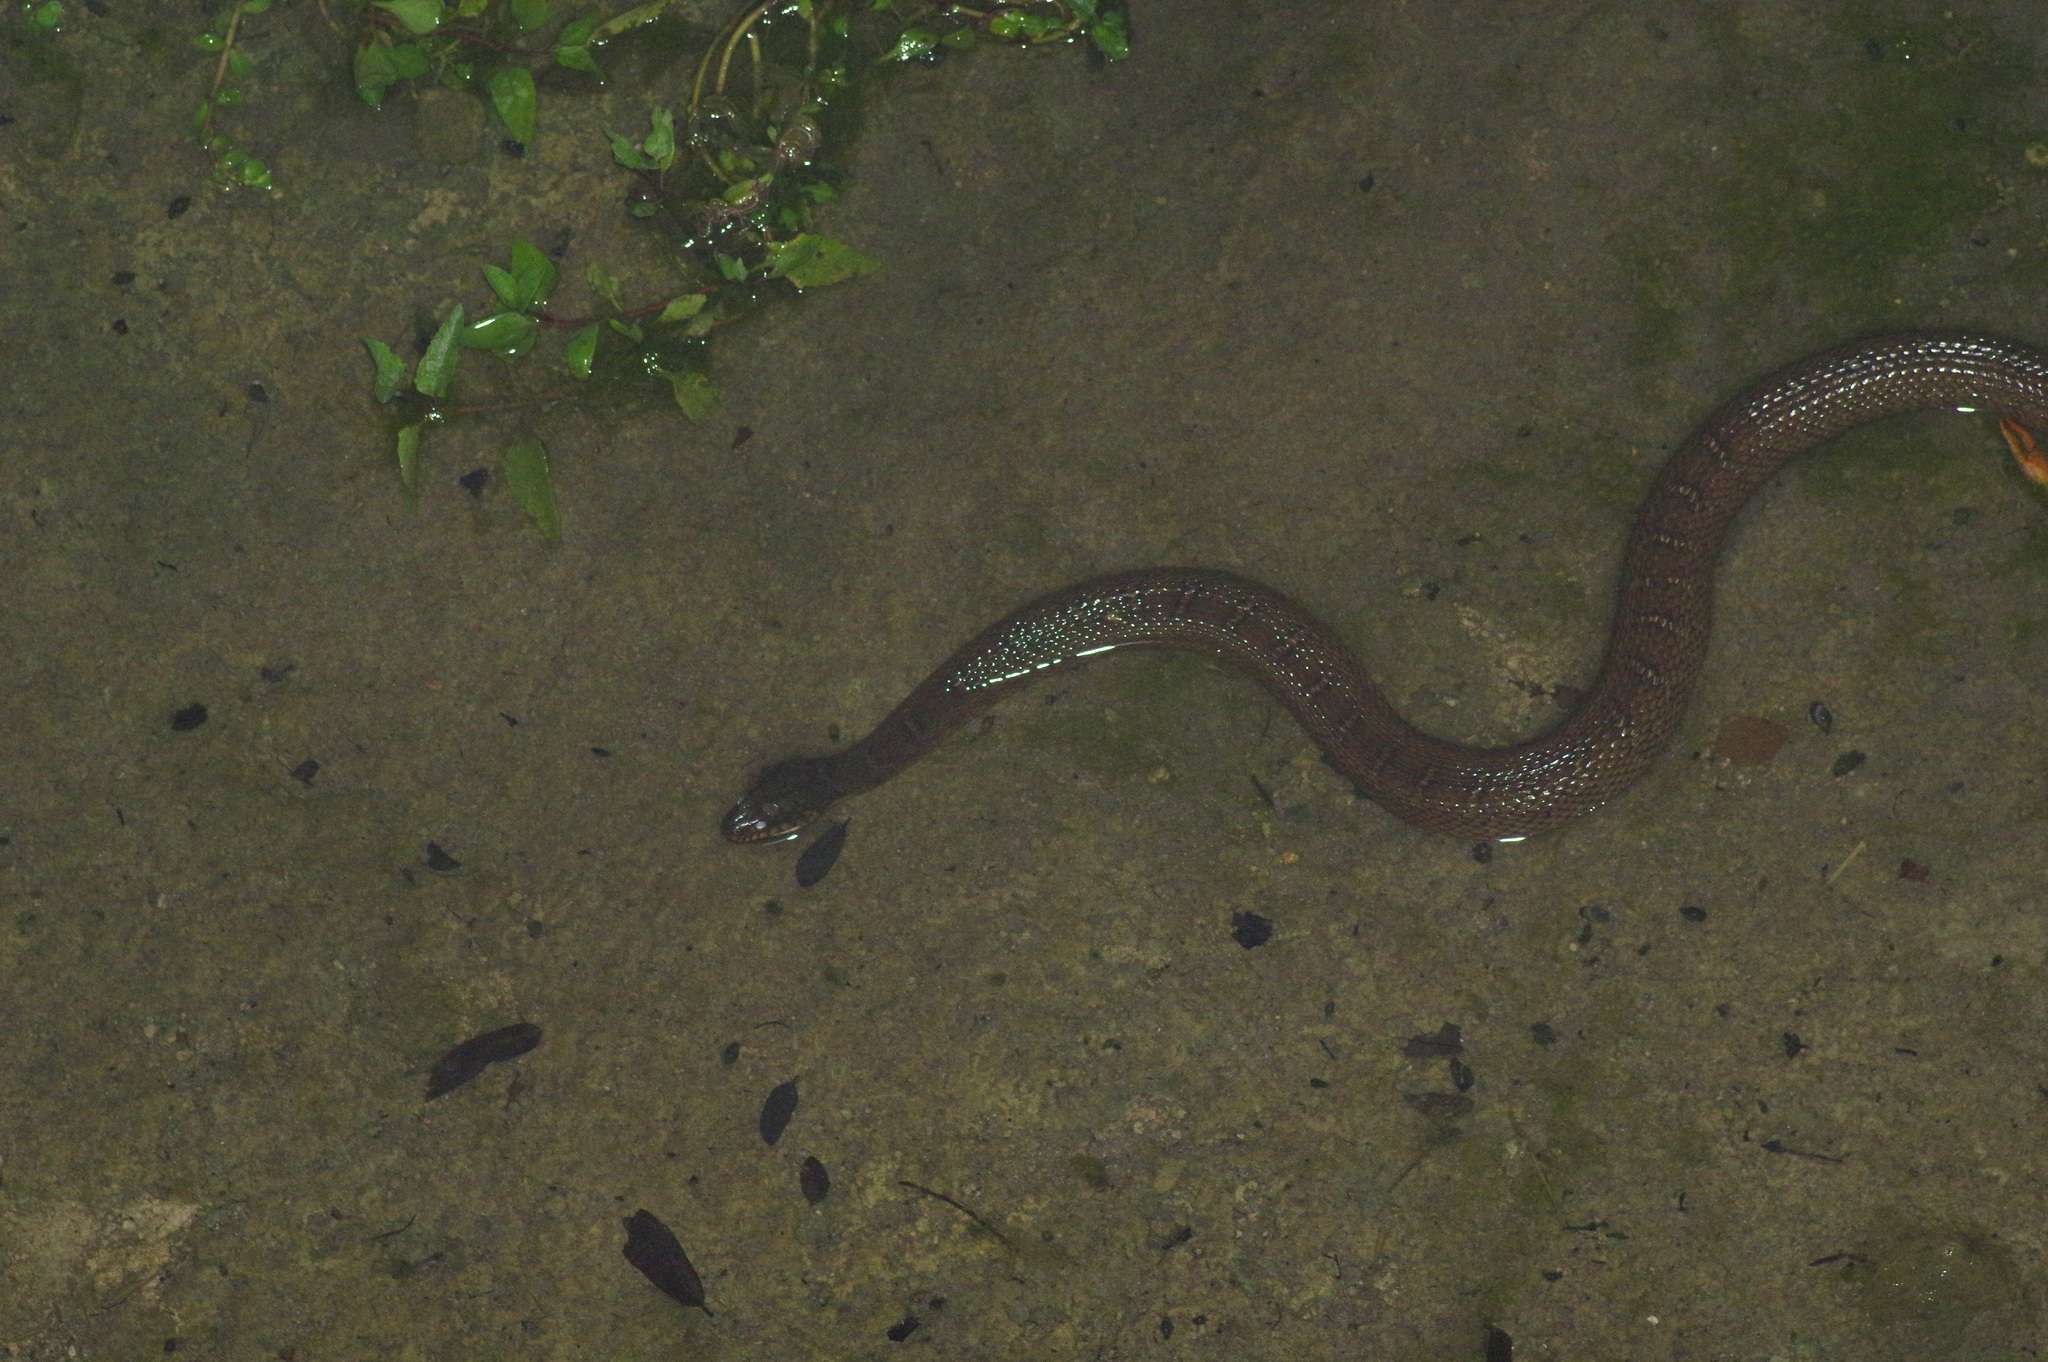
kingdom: Animalia
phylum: Chordata
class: Squamata
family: Colubridae
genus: Nerodia
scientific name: Nerodia erythrogaster
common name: Plainbelly water snake
